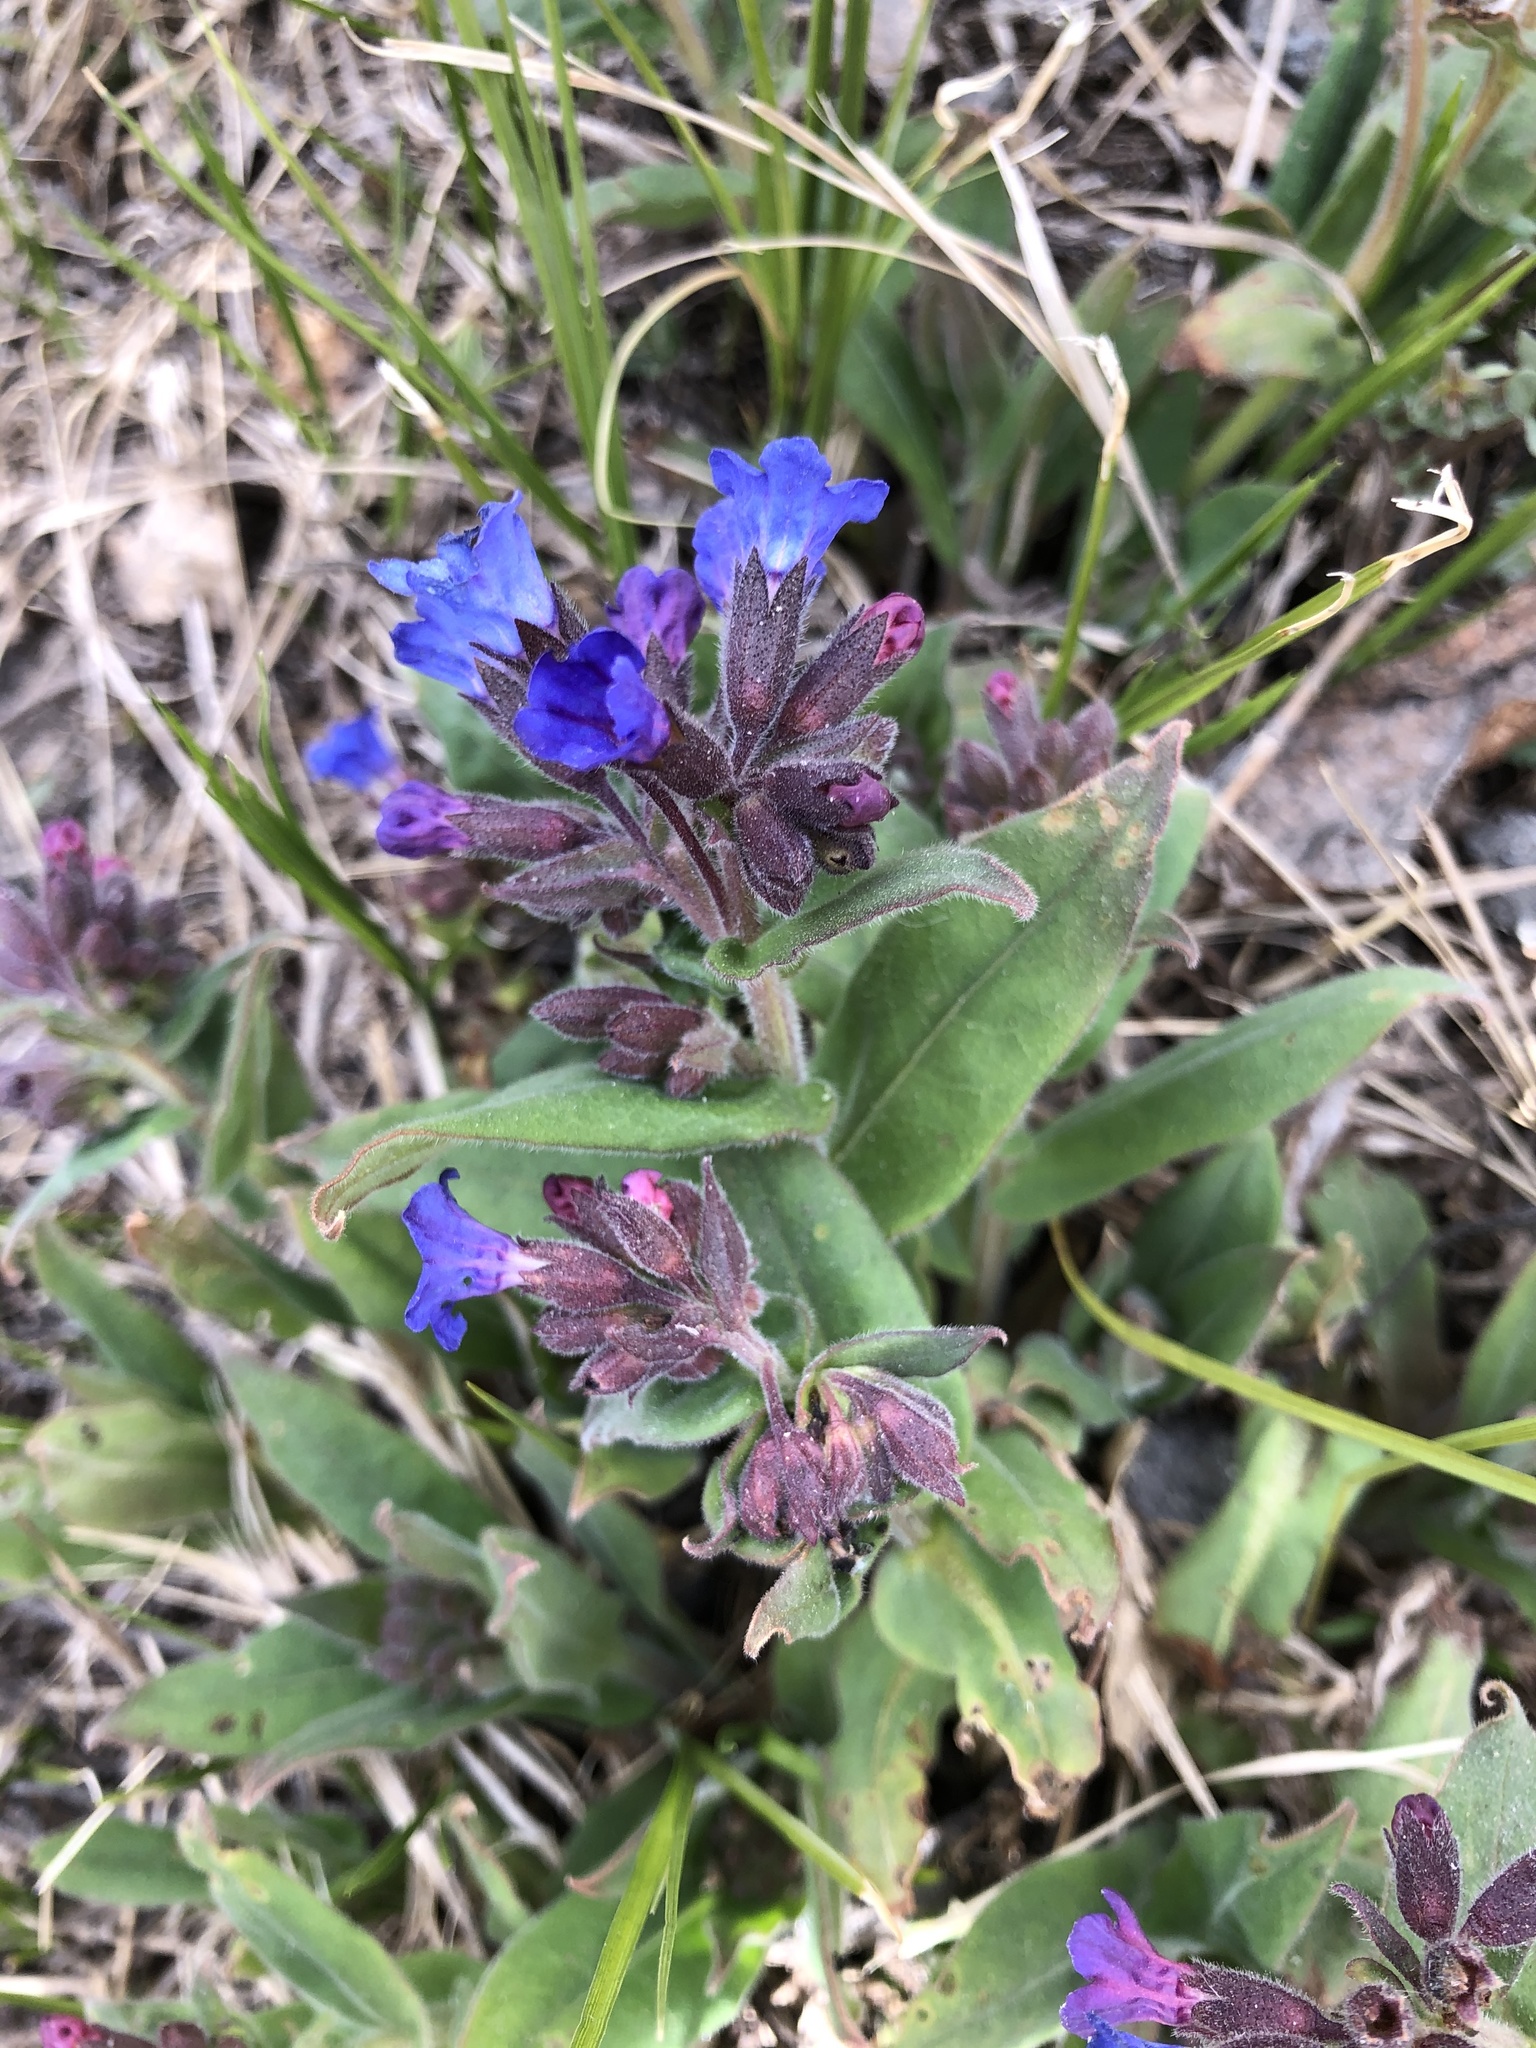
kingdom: Plantae
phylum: Tracheophyta
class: Magnoliopsida
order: Boraginales
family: Boraginaceae
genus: Pulmonaria
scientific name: Pulmonaria mollis
